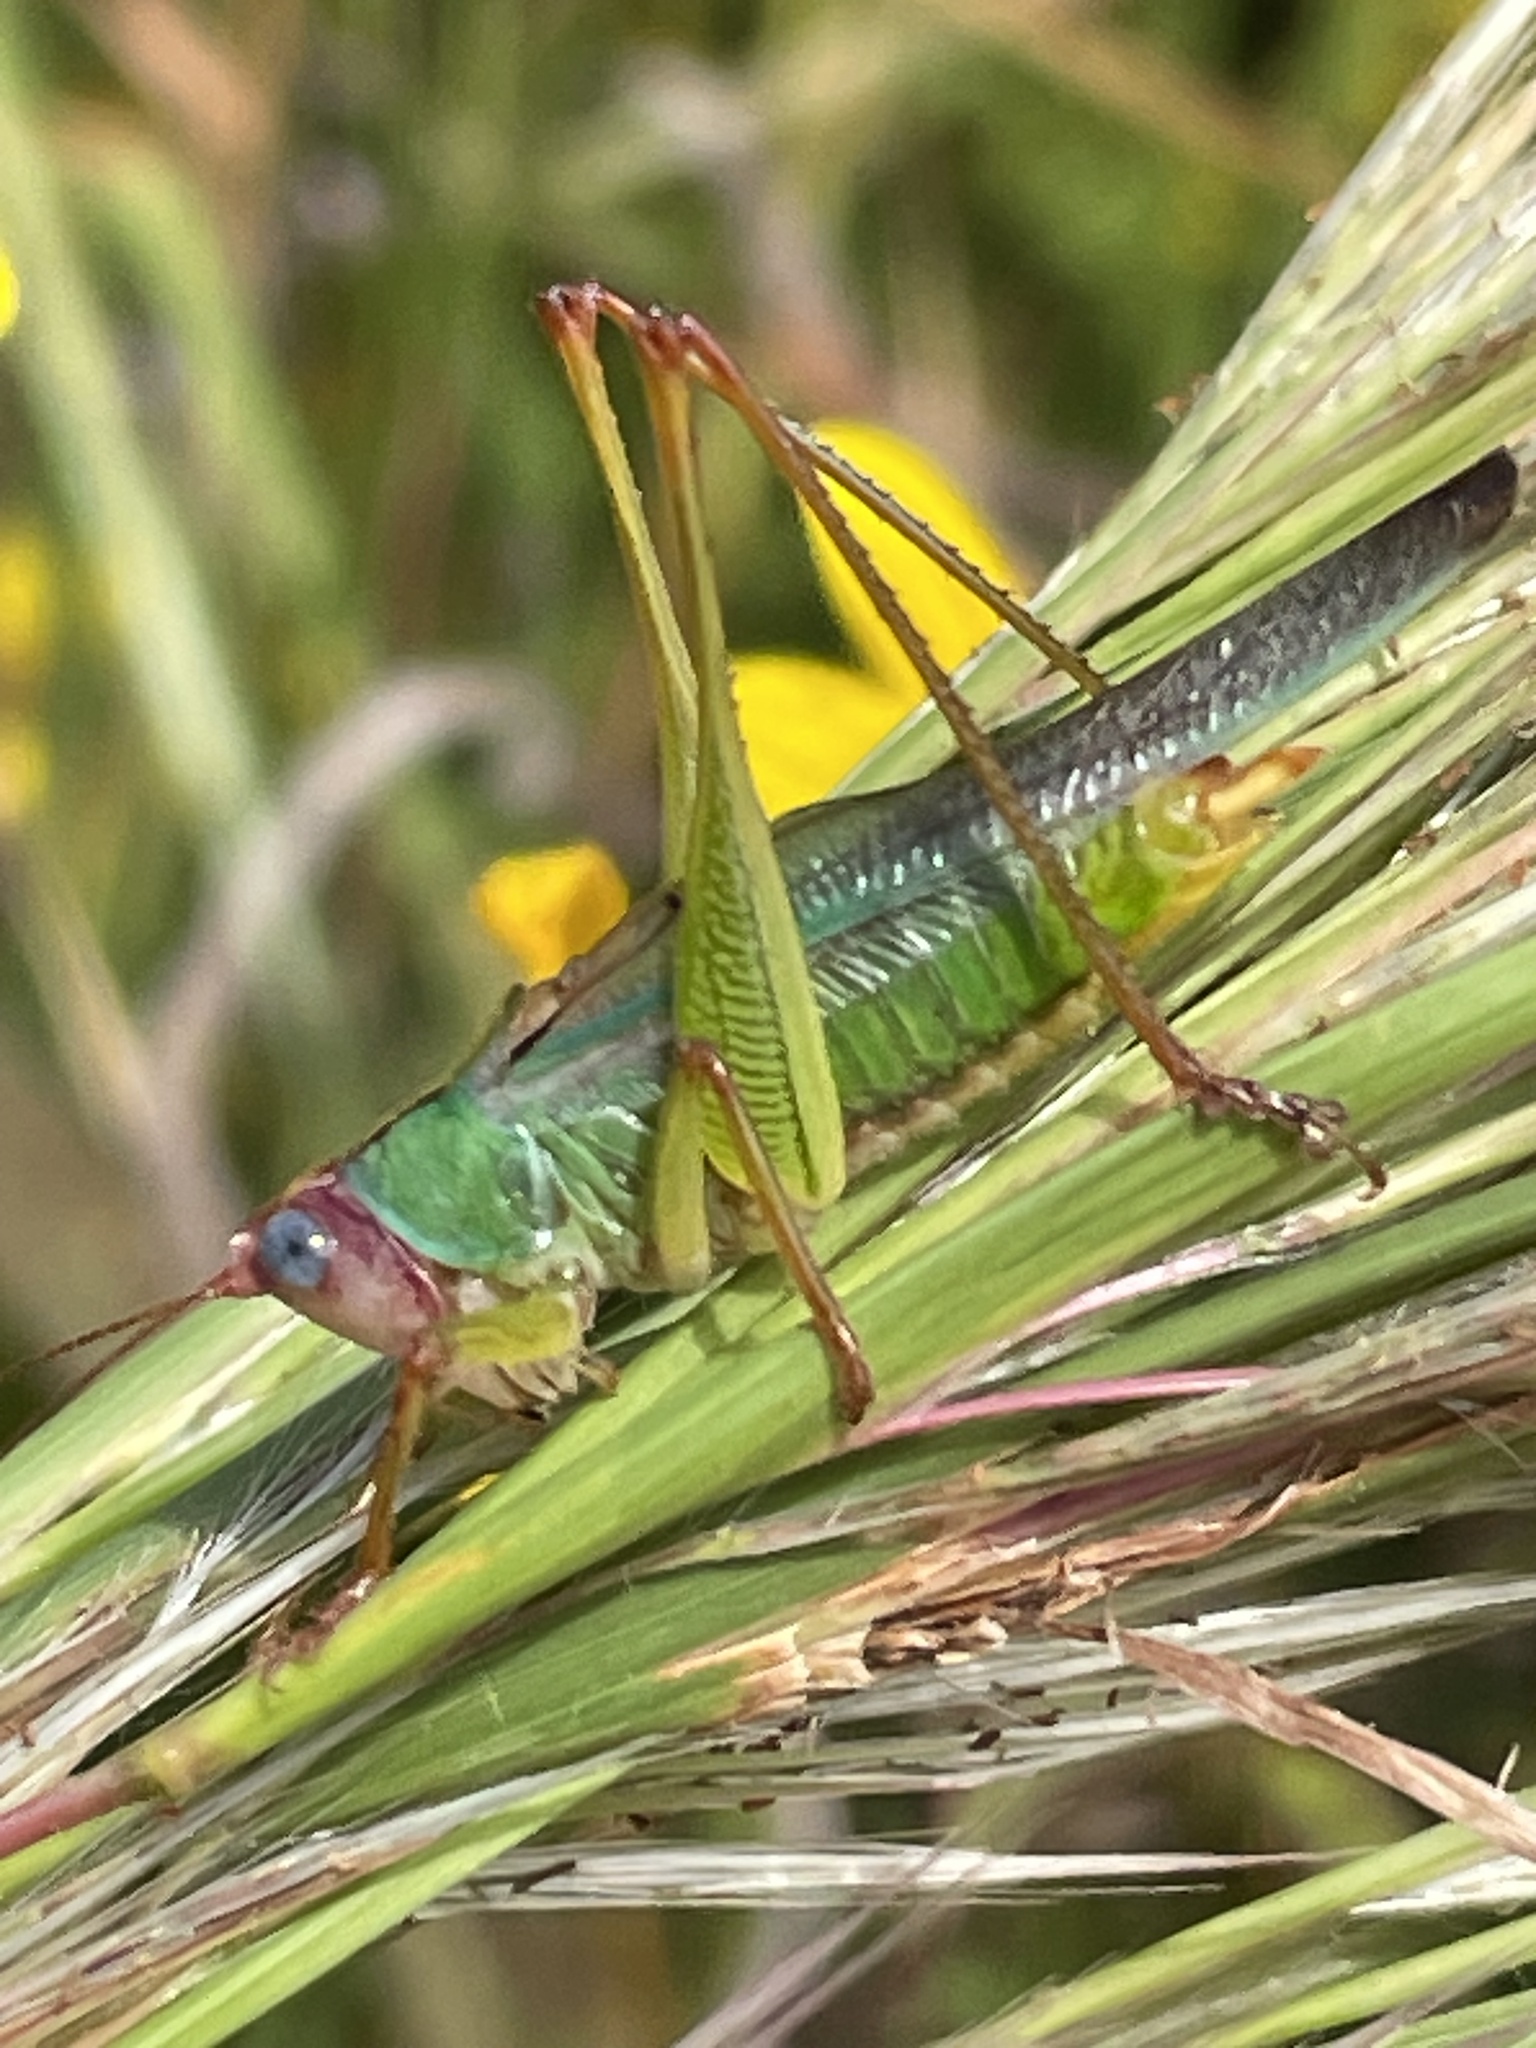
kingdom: Animalia
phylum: Arthropoda
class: Insecta
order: Orthoptera
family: Tettigoniidae
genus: Orchelimum
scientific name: Orchelimum pulchellum
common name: Handsome meadow katydid
